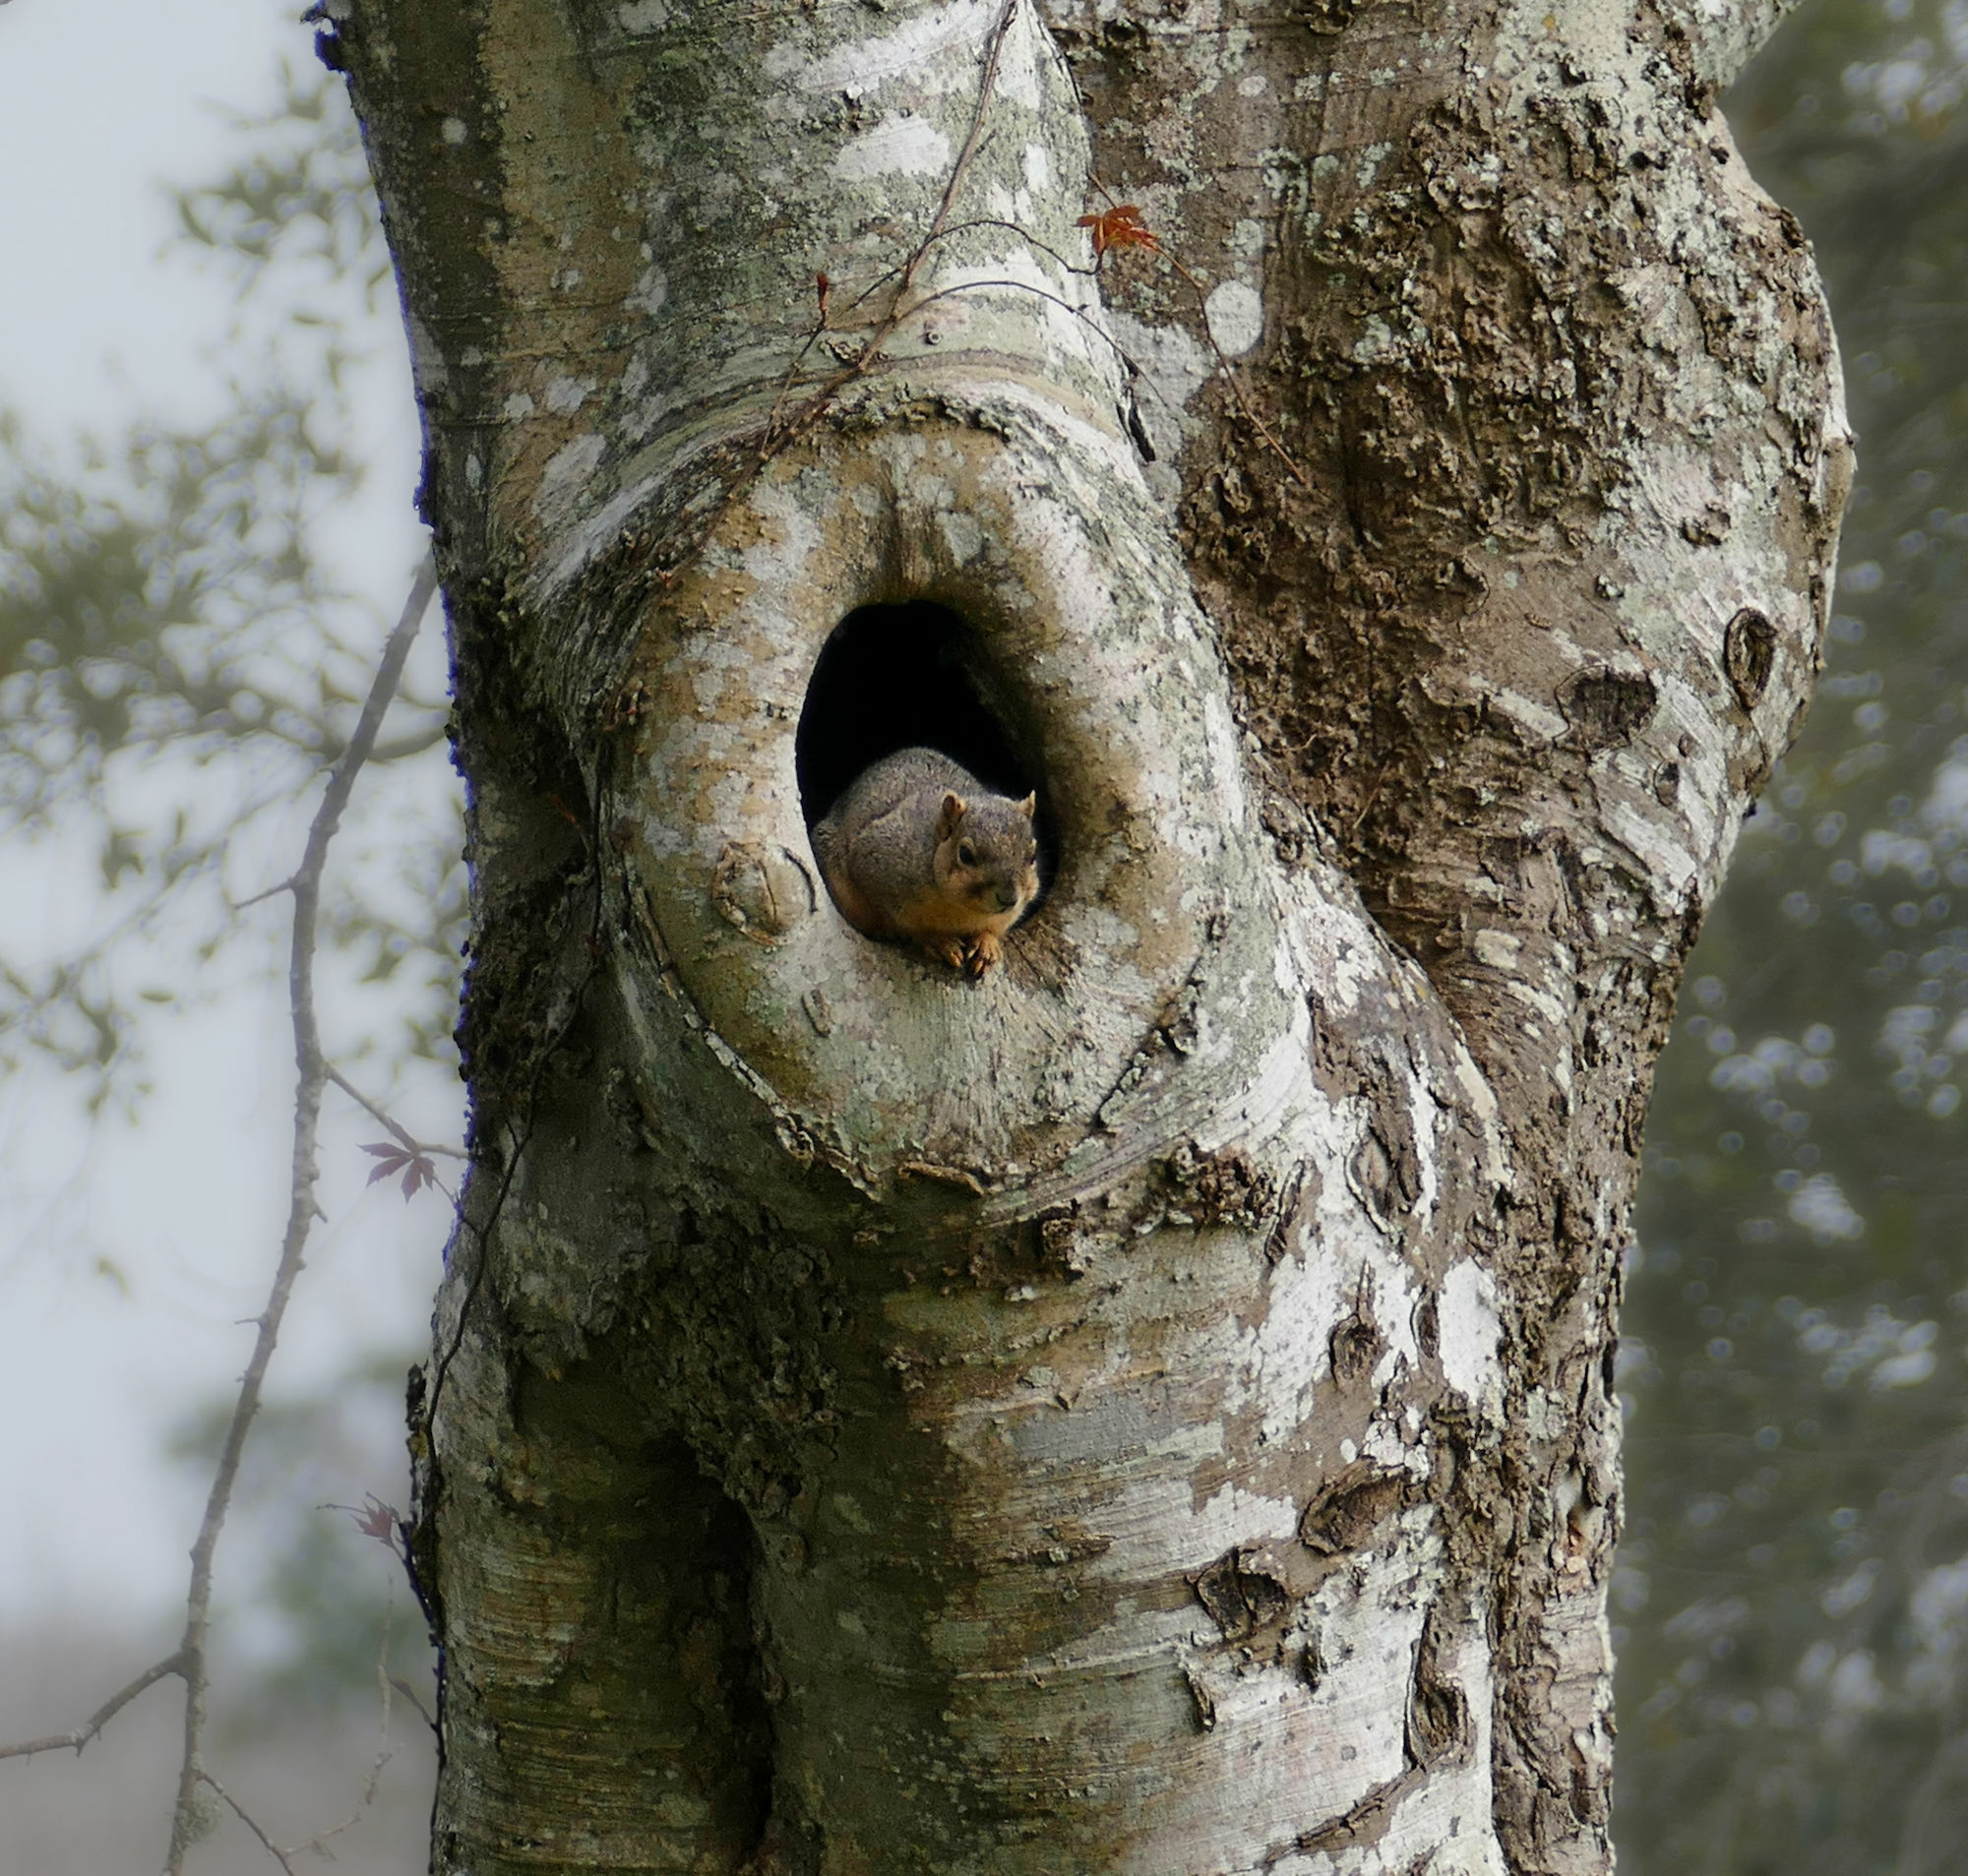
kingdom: Animalia
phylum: Chordata
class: Mammalia
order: Rodentia
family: Sciuridae
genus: Sciurus
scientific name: Sciurus niger
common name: Fox squirrel
